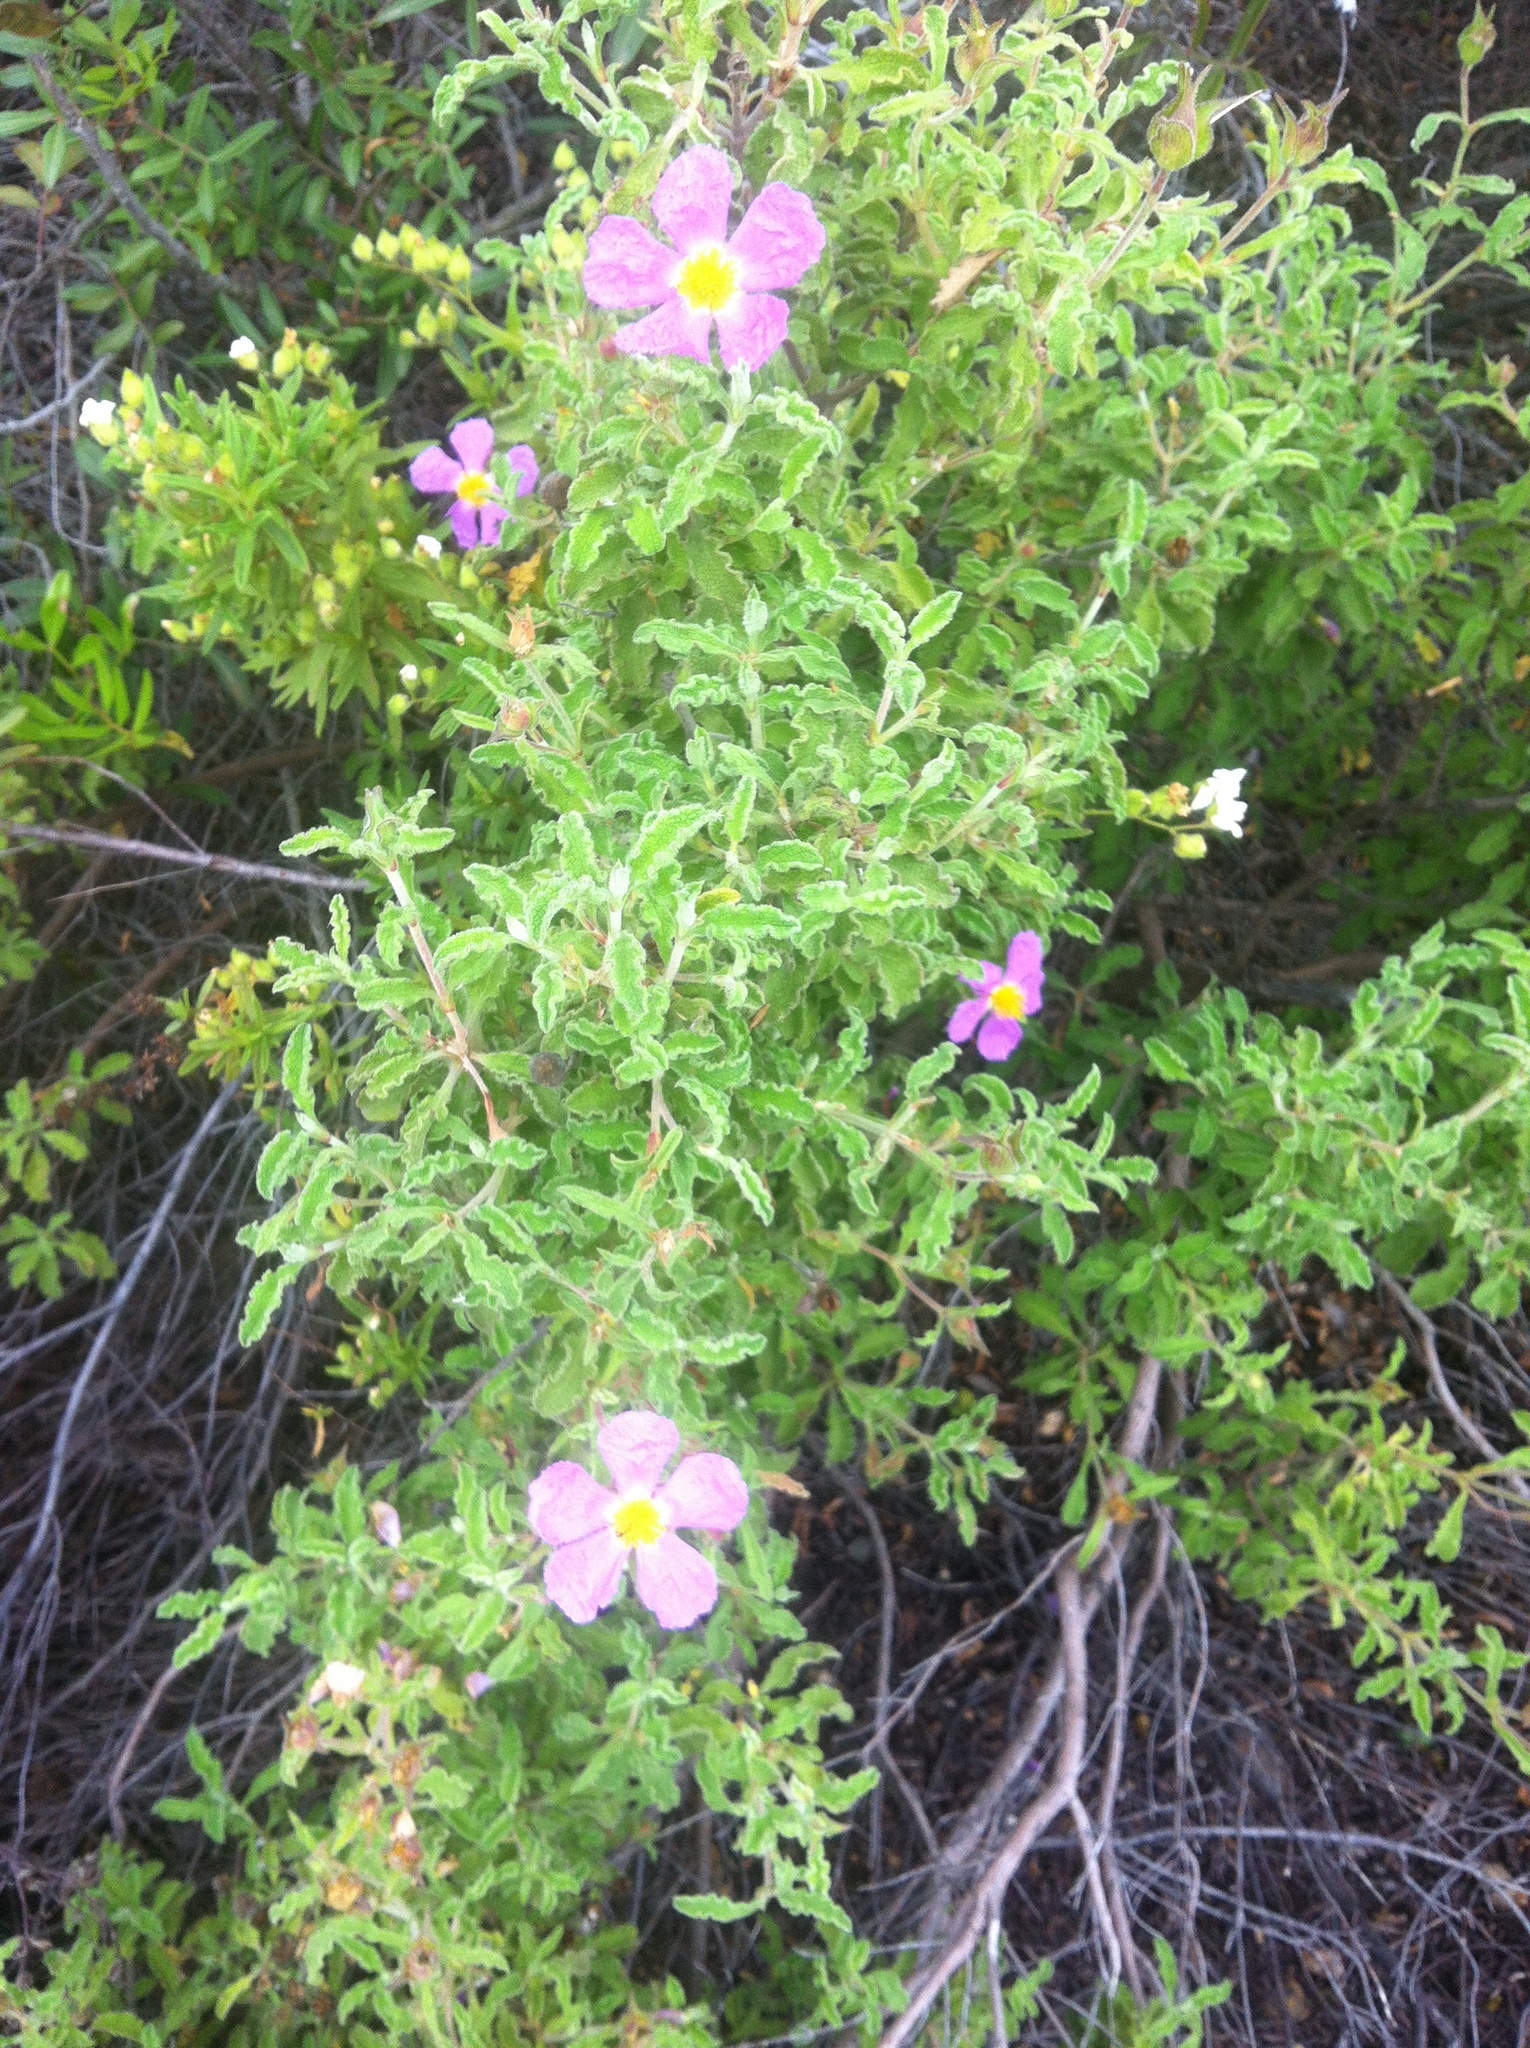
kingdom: Plantae
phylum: Tracheophyta
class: Magnoliopsida
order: Malvales
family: Cistaceae
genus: Cistus
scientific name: Cistus creticus
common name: Cretan rockrose
